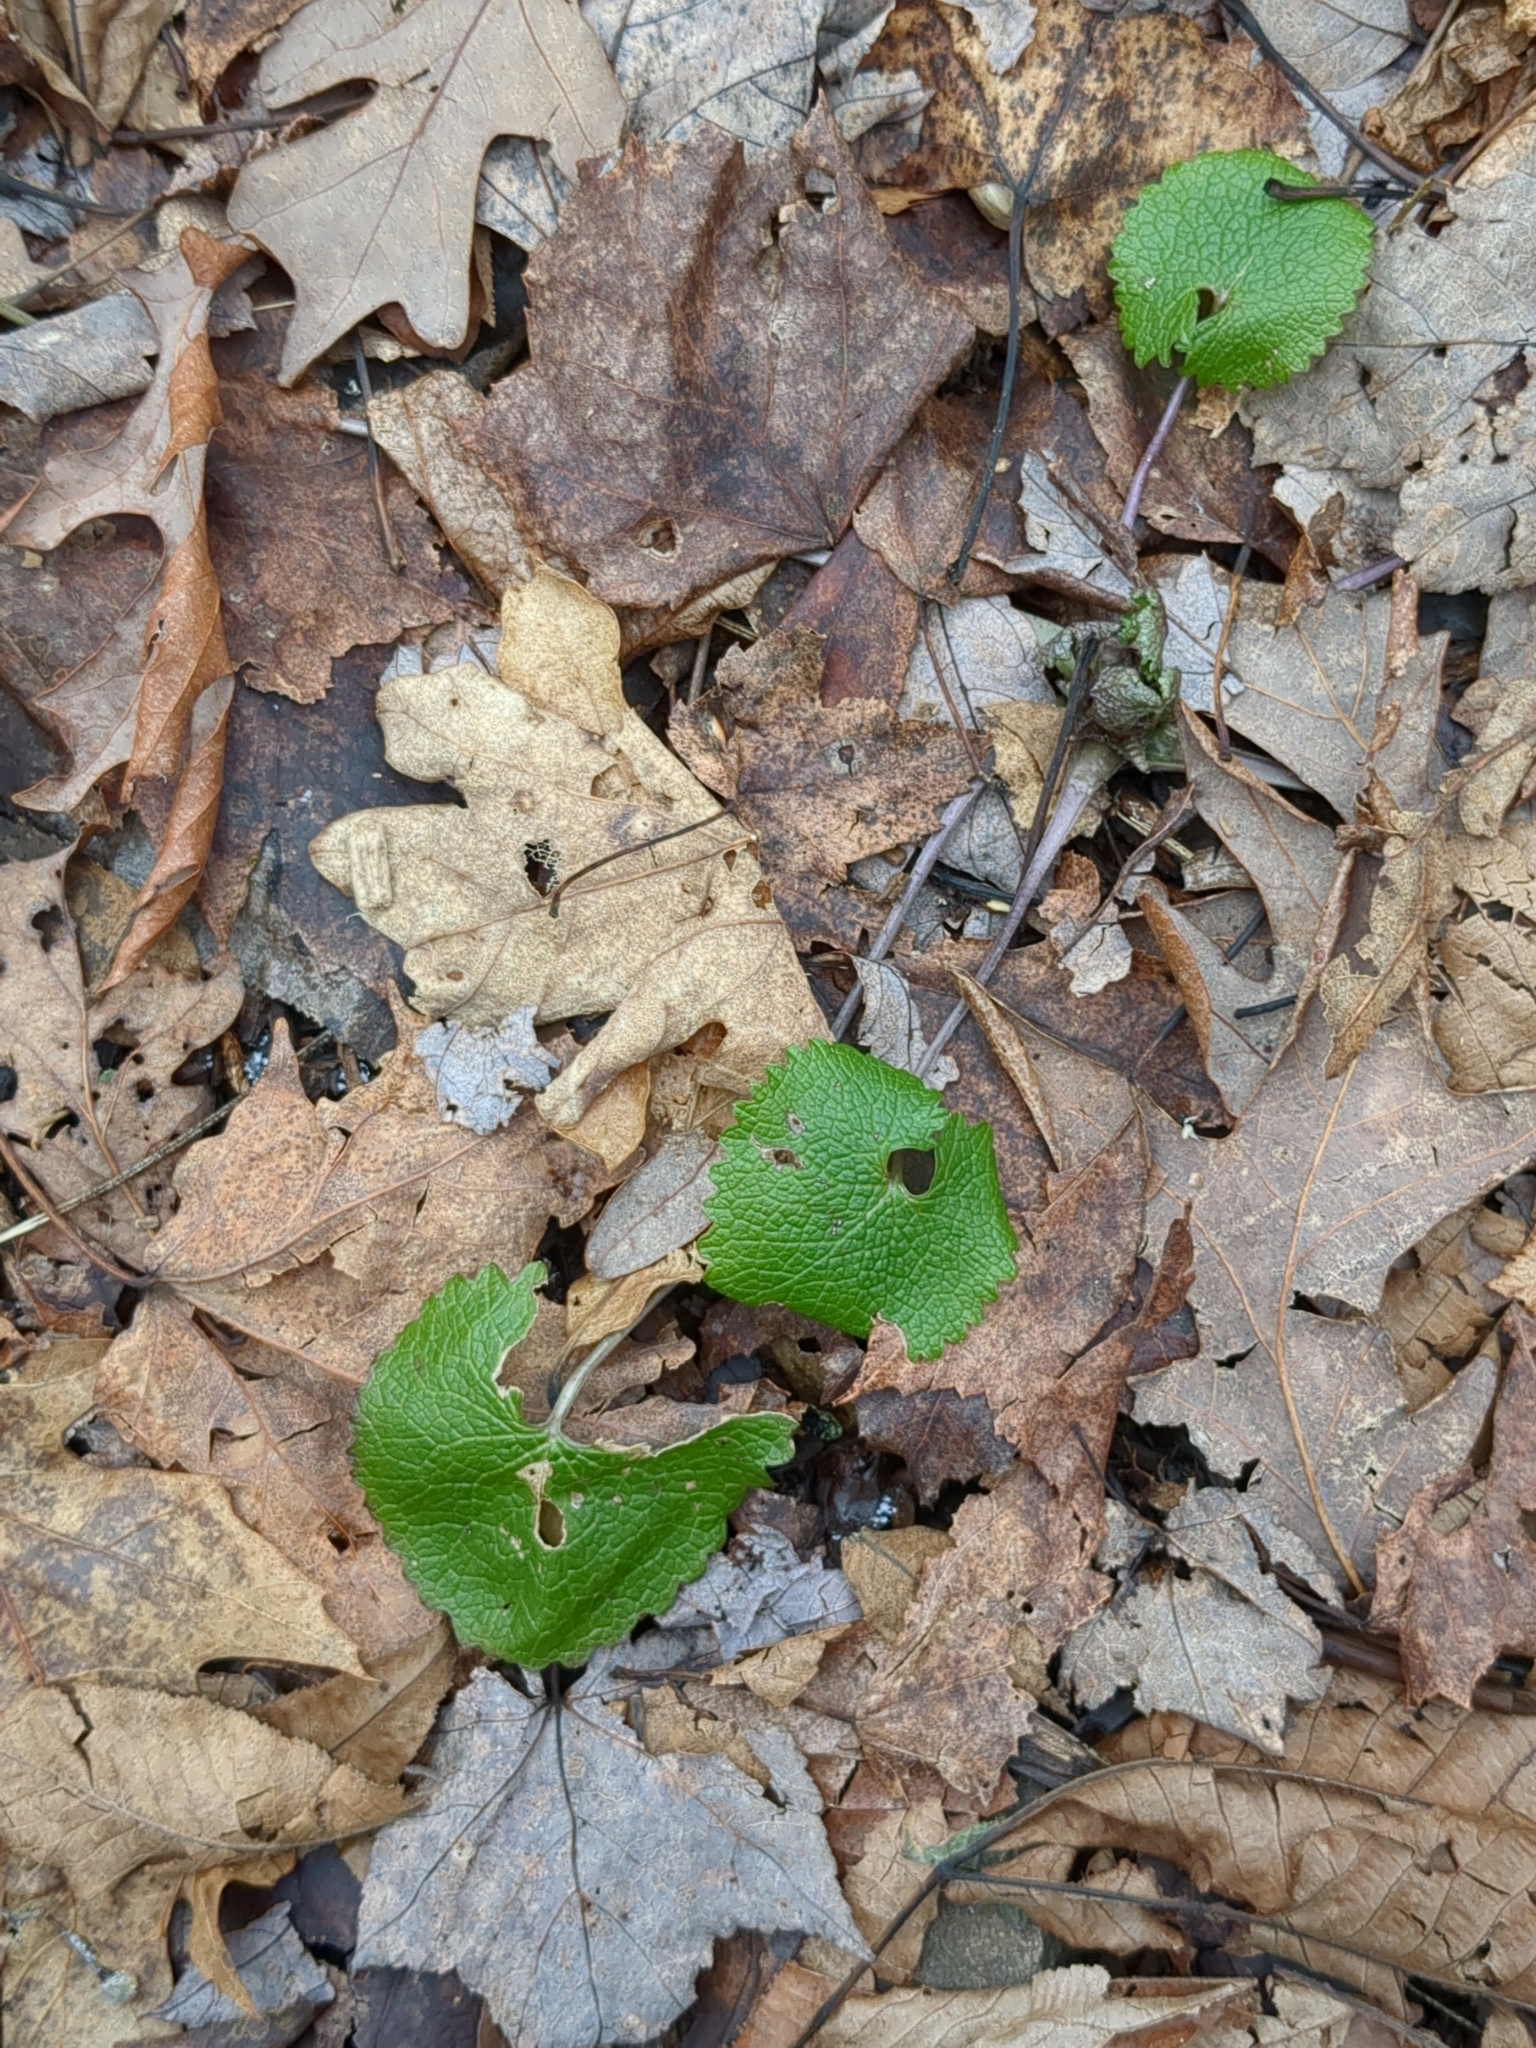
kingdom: Plantae
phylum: Tracheophyta
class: Magnoliopsida
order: Brassicales
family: Brassicaceae
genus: Alliaria
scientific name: Alliaria petiolata
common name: Garlic mustard
